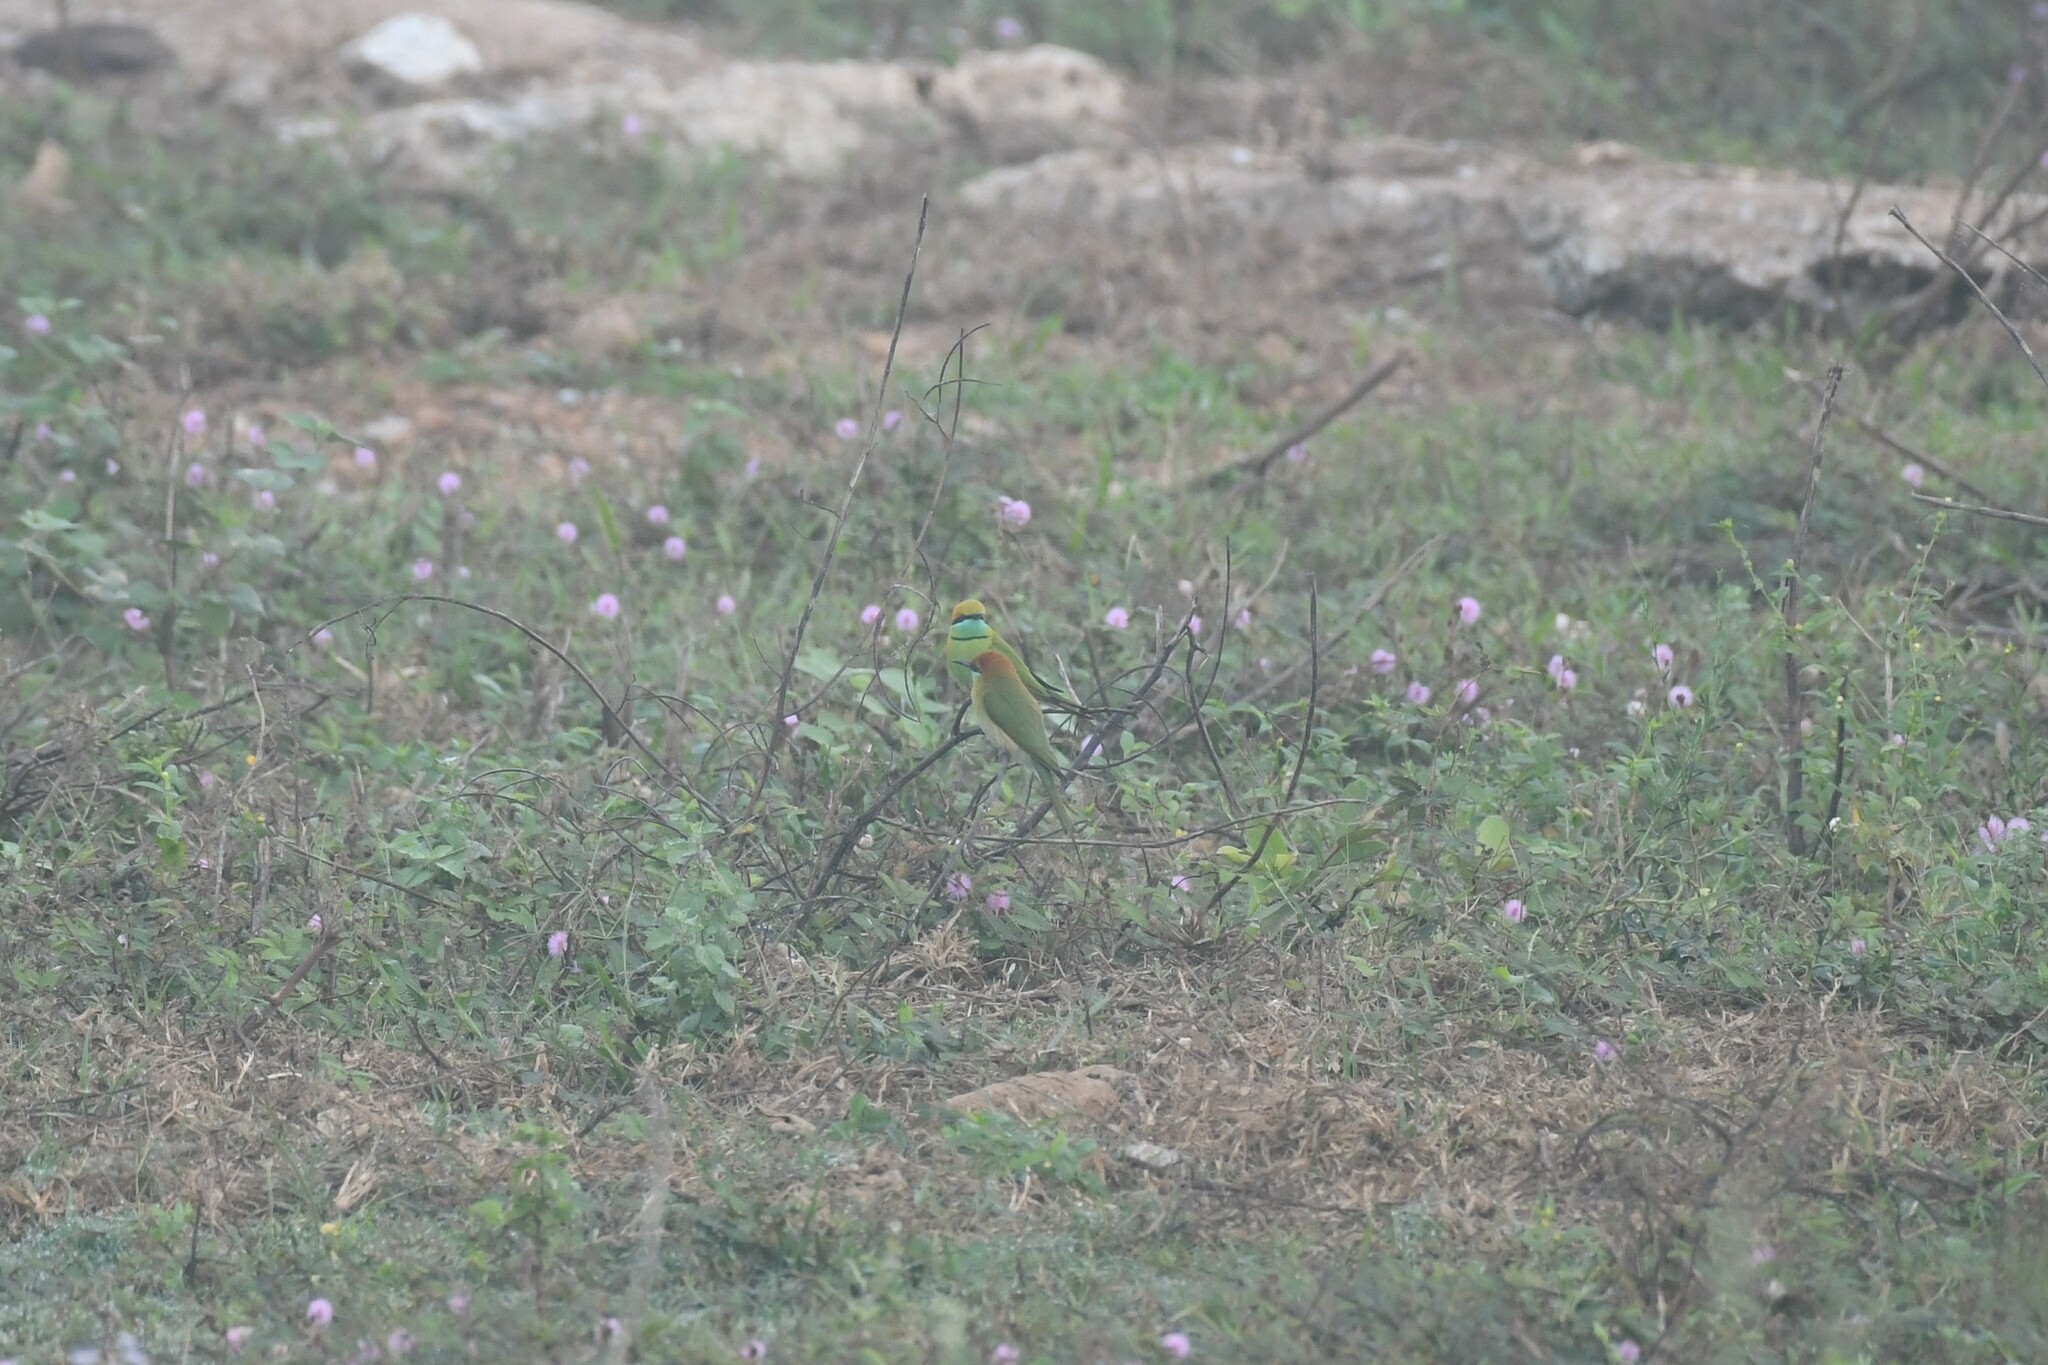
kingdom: Animalia
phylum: Chordata
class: Aves
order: Coraciiformes
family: Meropidae
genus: Merops
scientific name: Merops orientalis
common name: Green bee-eater
